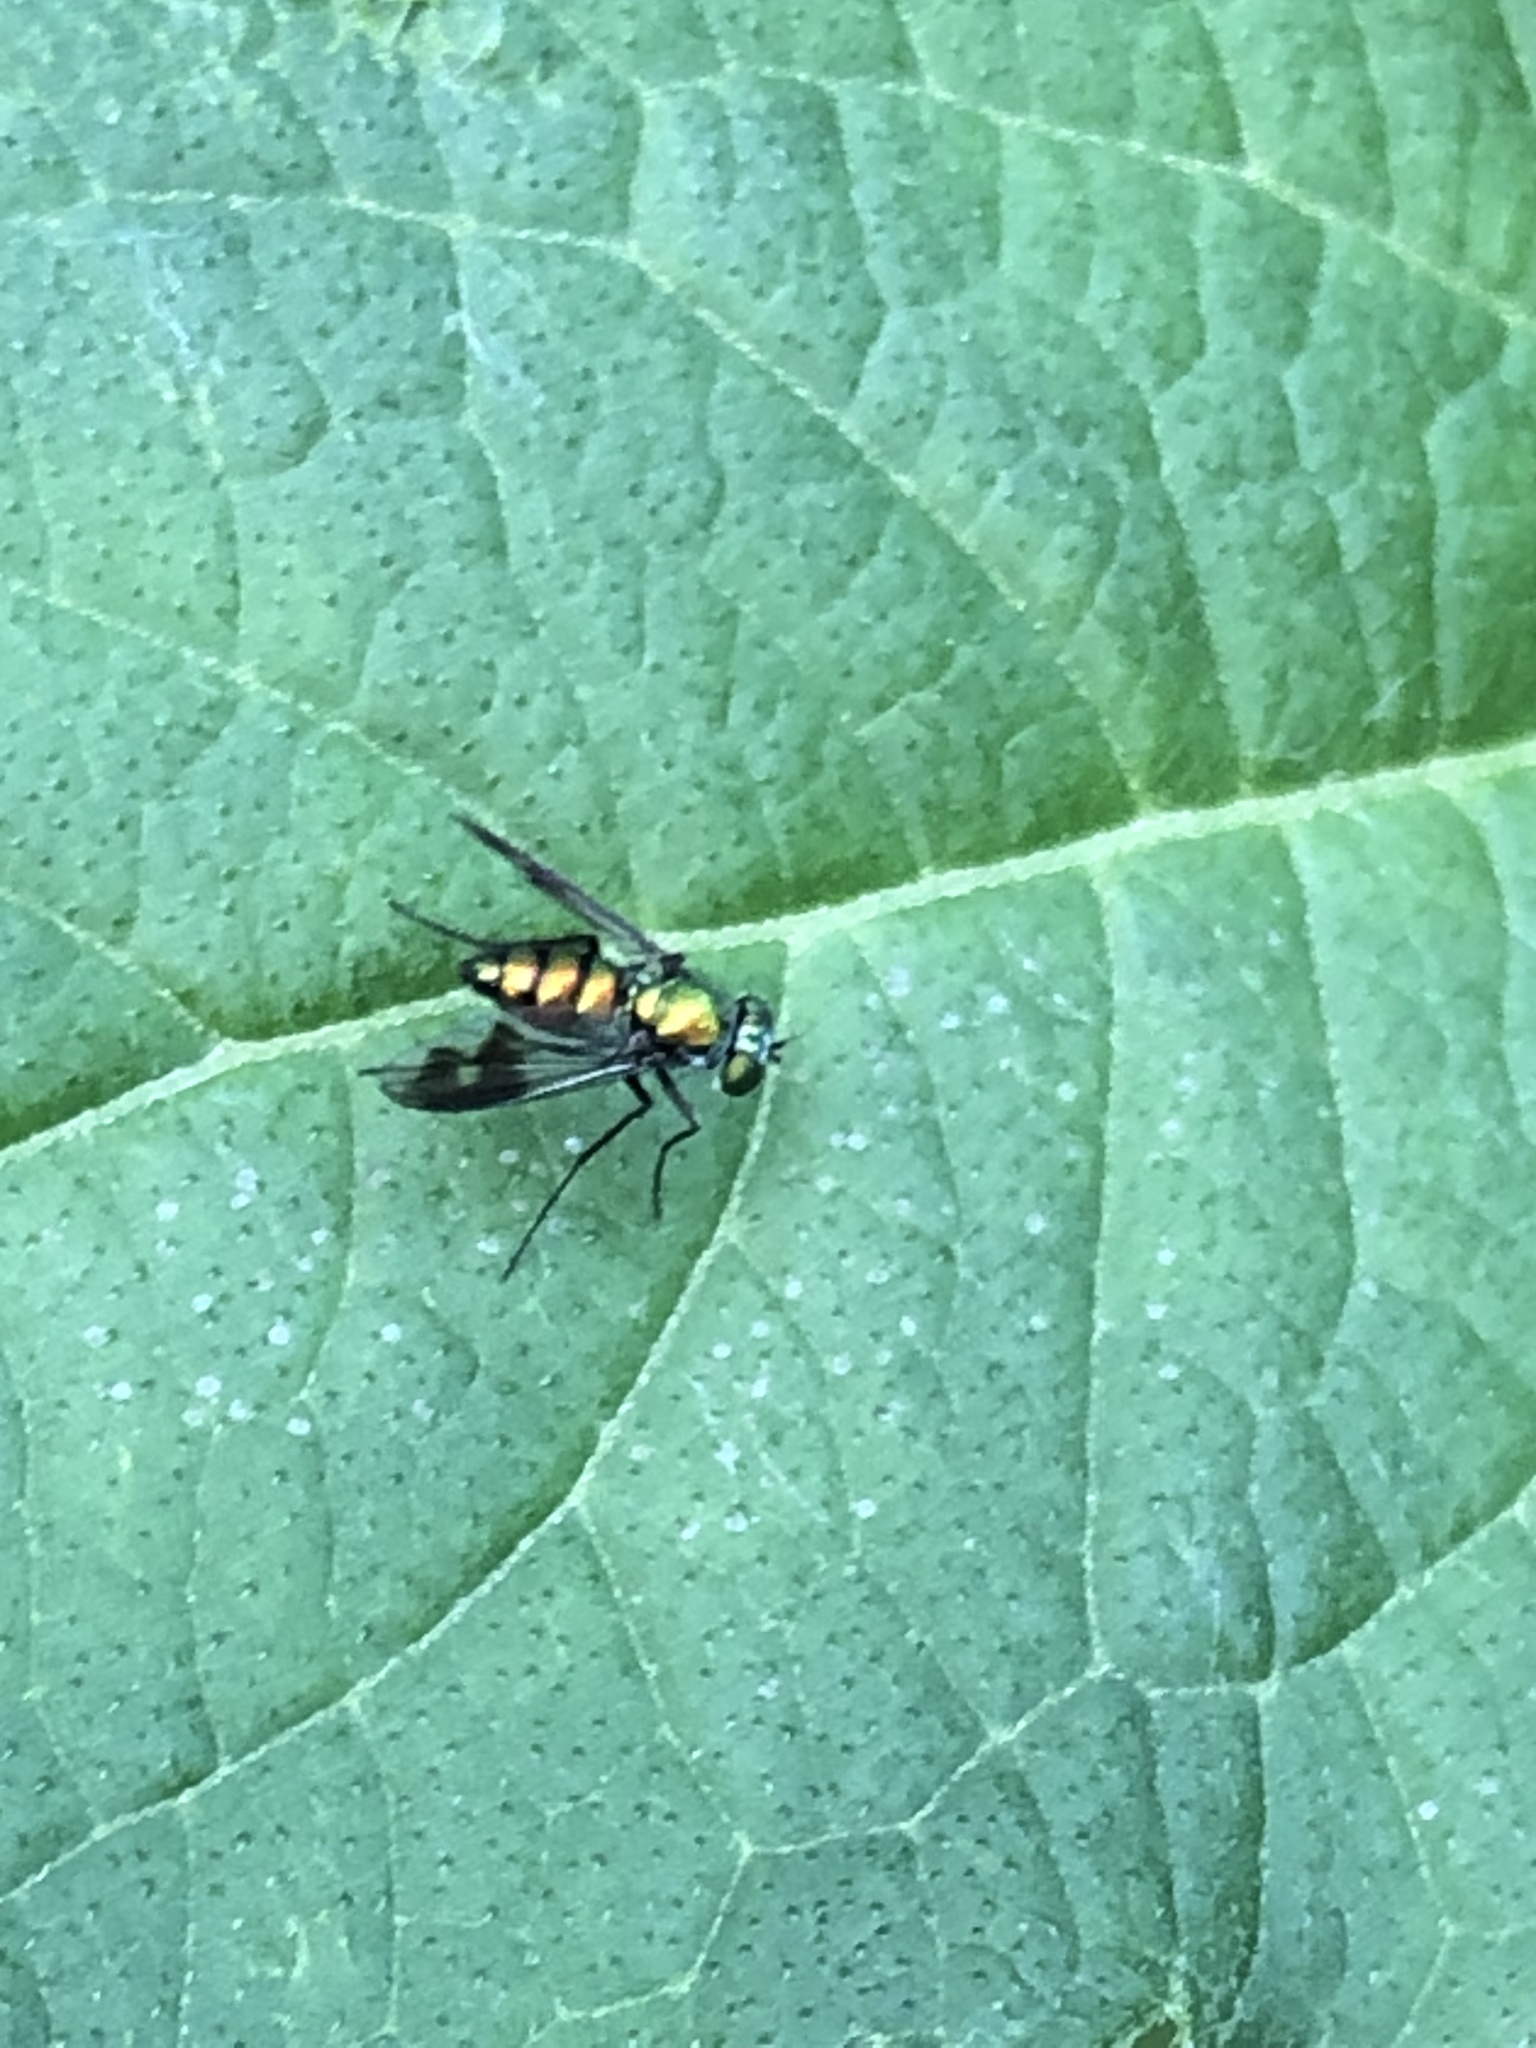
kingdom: Animalia
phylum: Arthropoda
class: Insecta
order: Diptera
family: Dolichopodidae
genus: Condylostylus
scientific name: Condylostylus patibulatus
